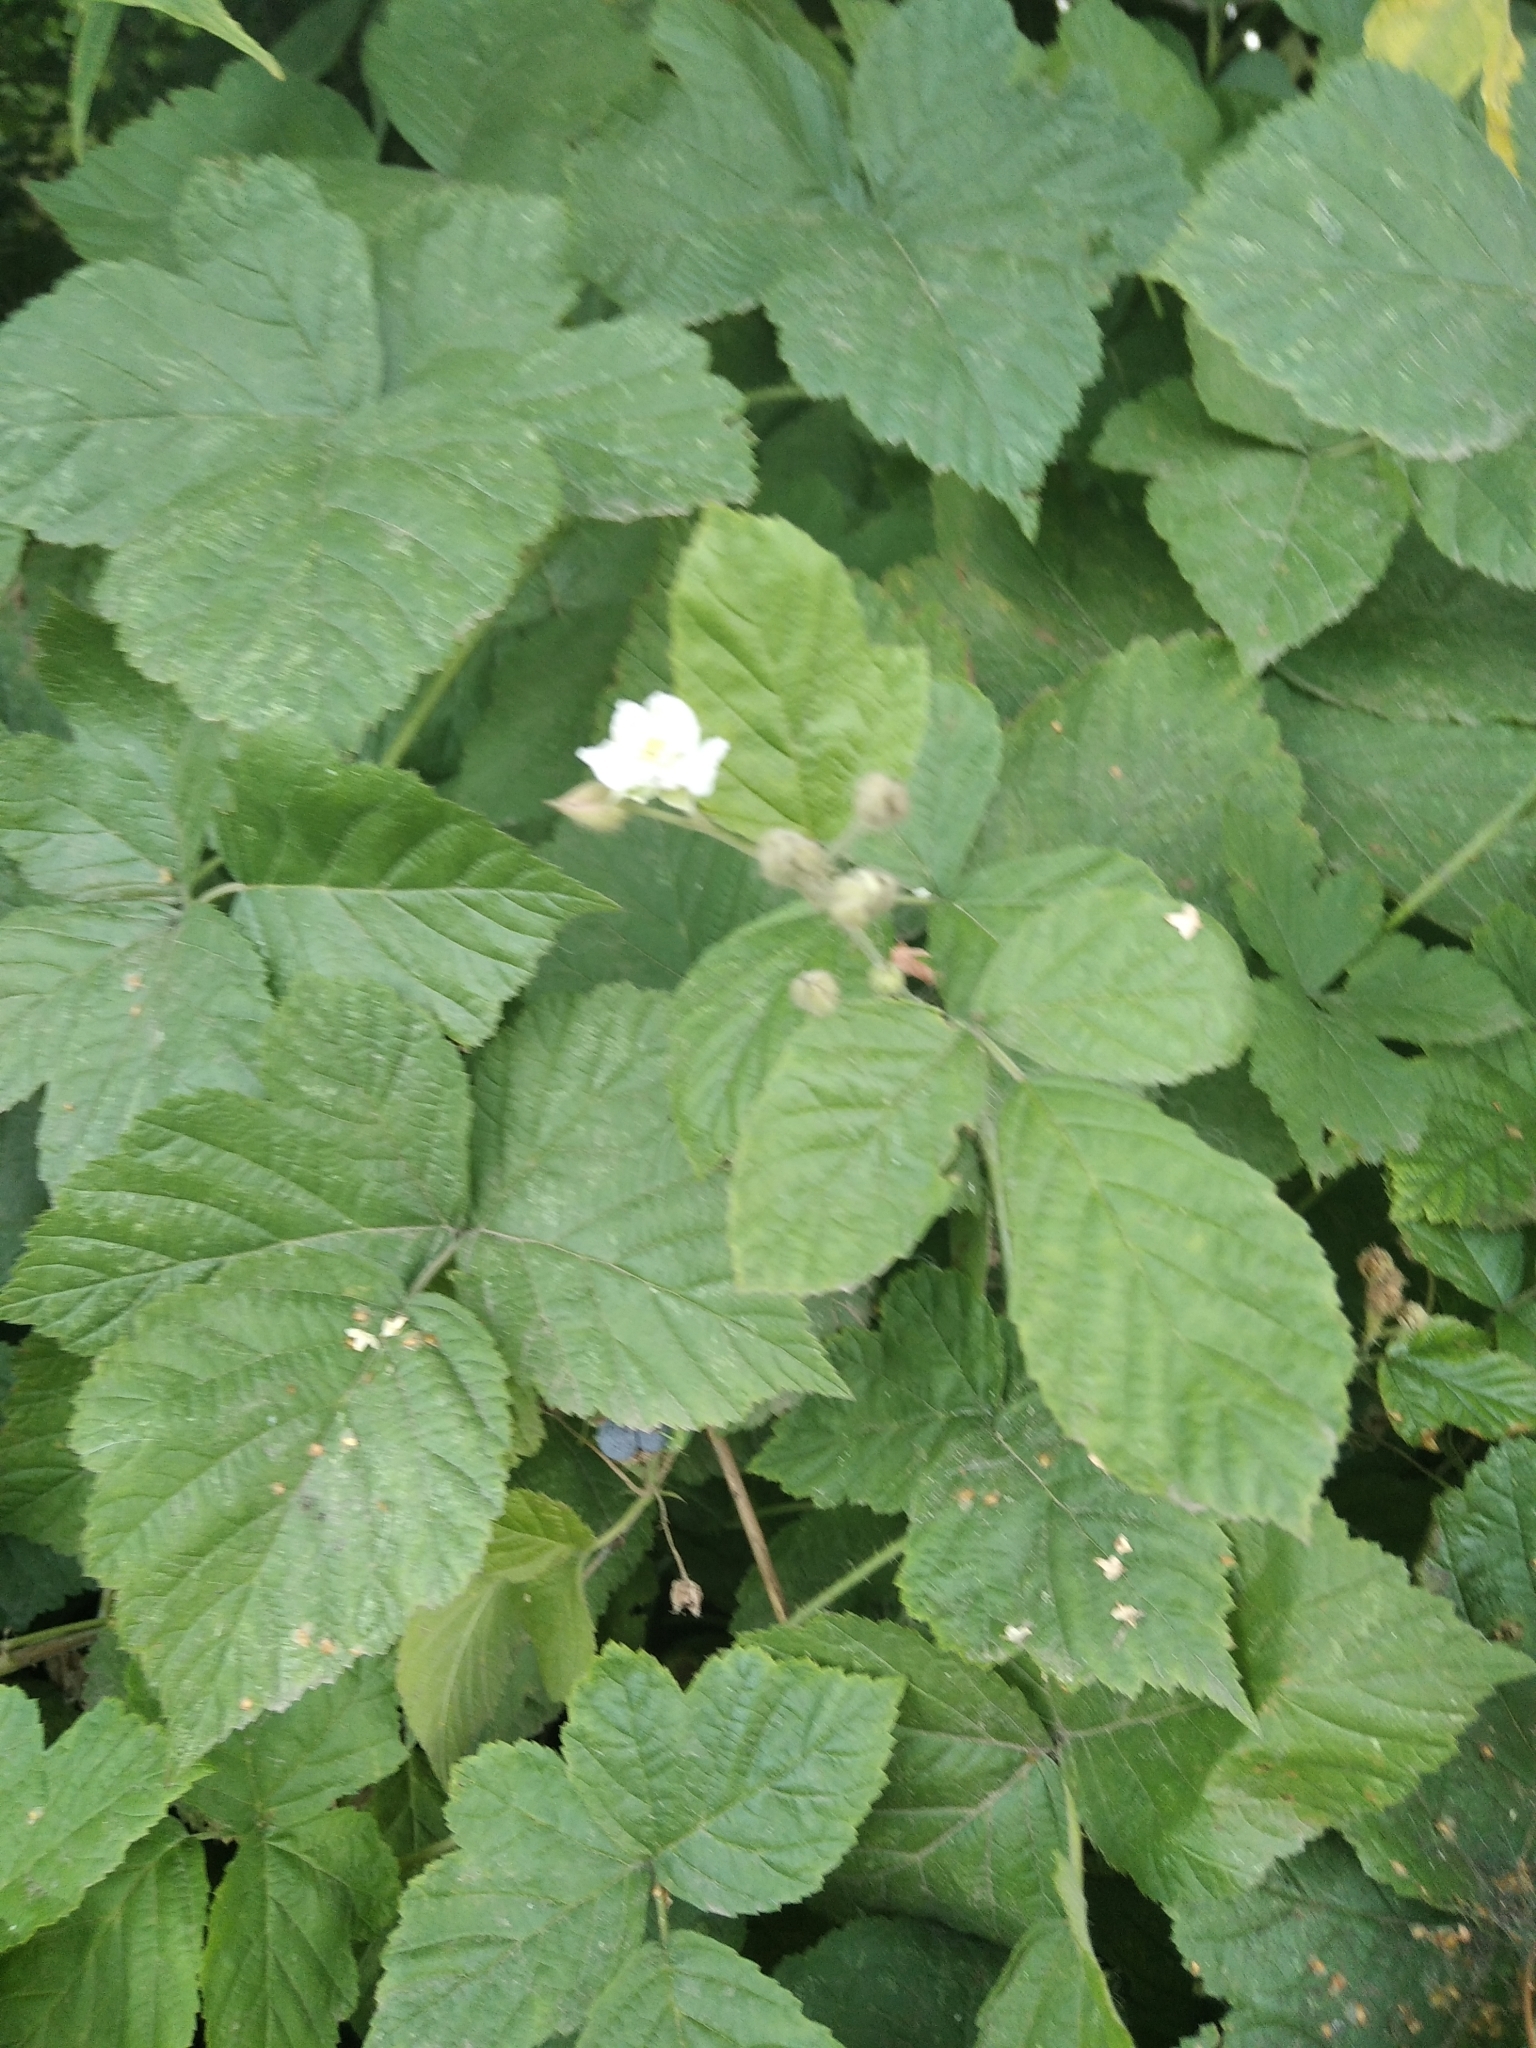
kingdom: Plantae
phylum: Tracheophyta
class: Magnoliopsida
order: Rosales
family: Rosaceae
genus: Rubus
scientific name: Rubus caesius
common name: Dewberry
